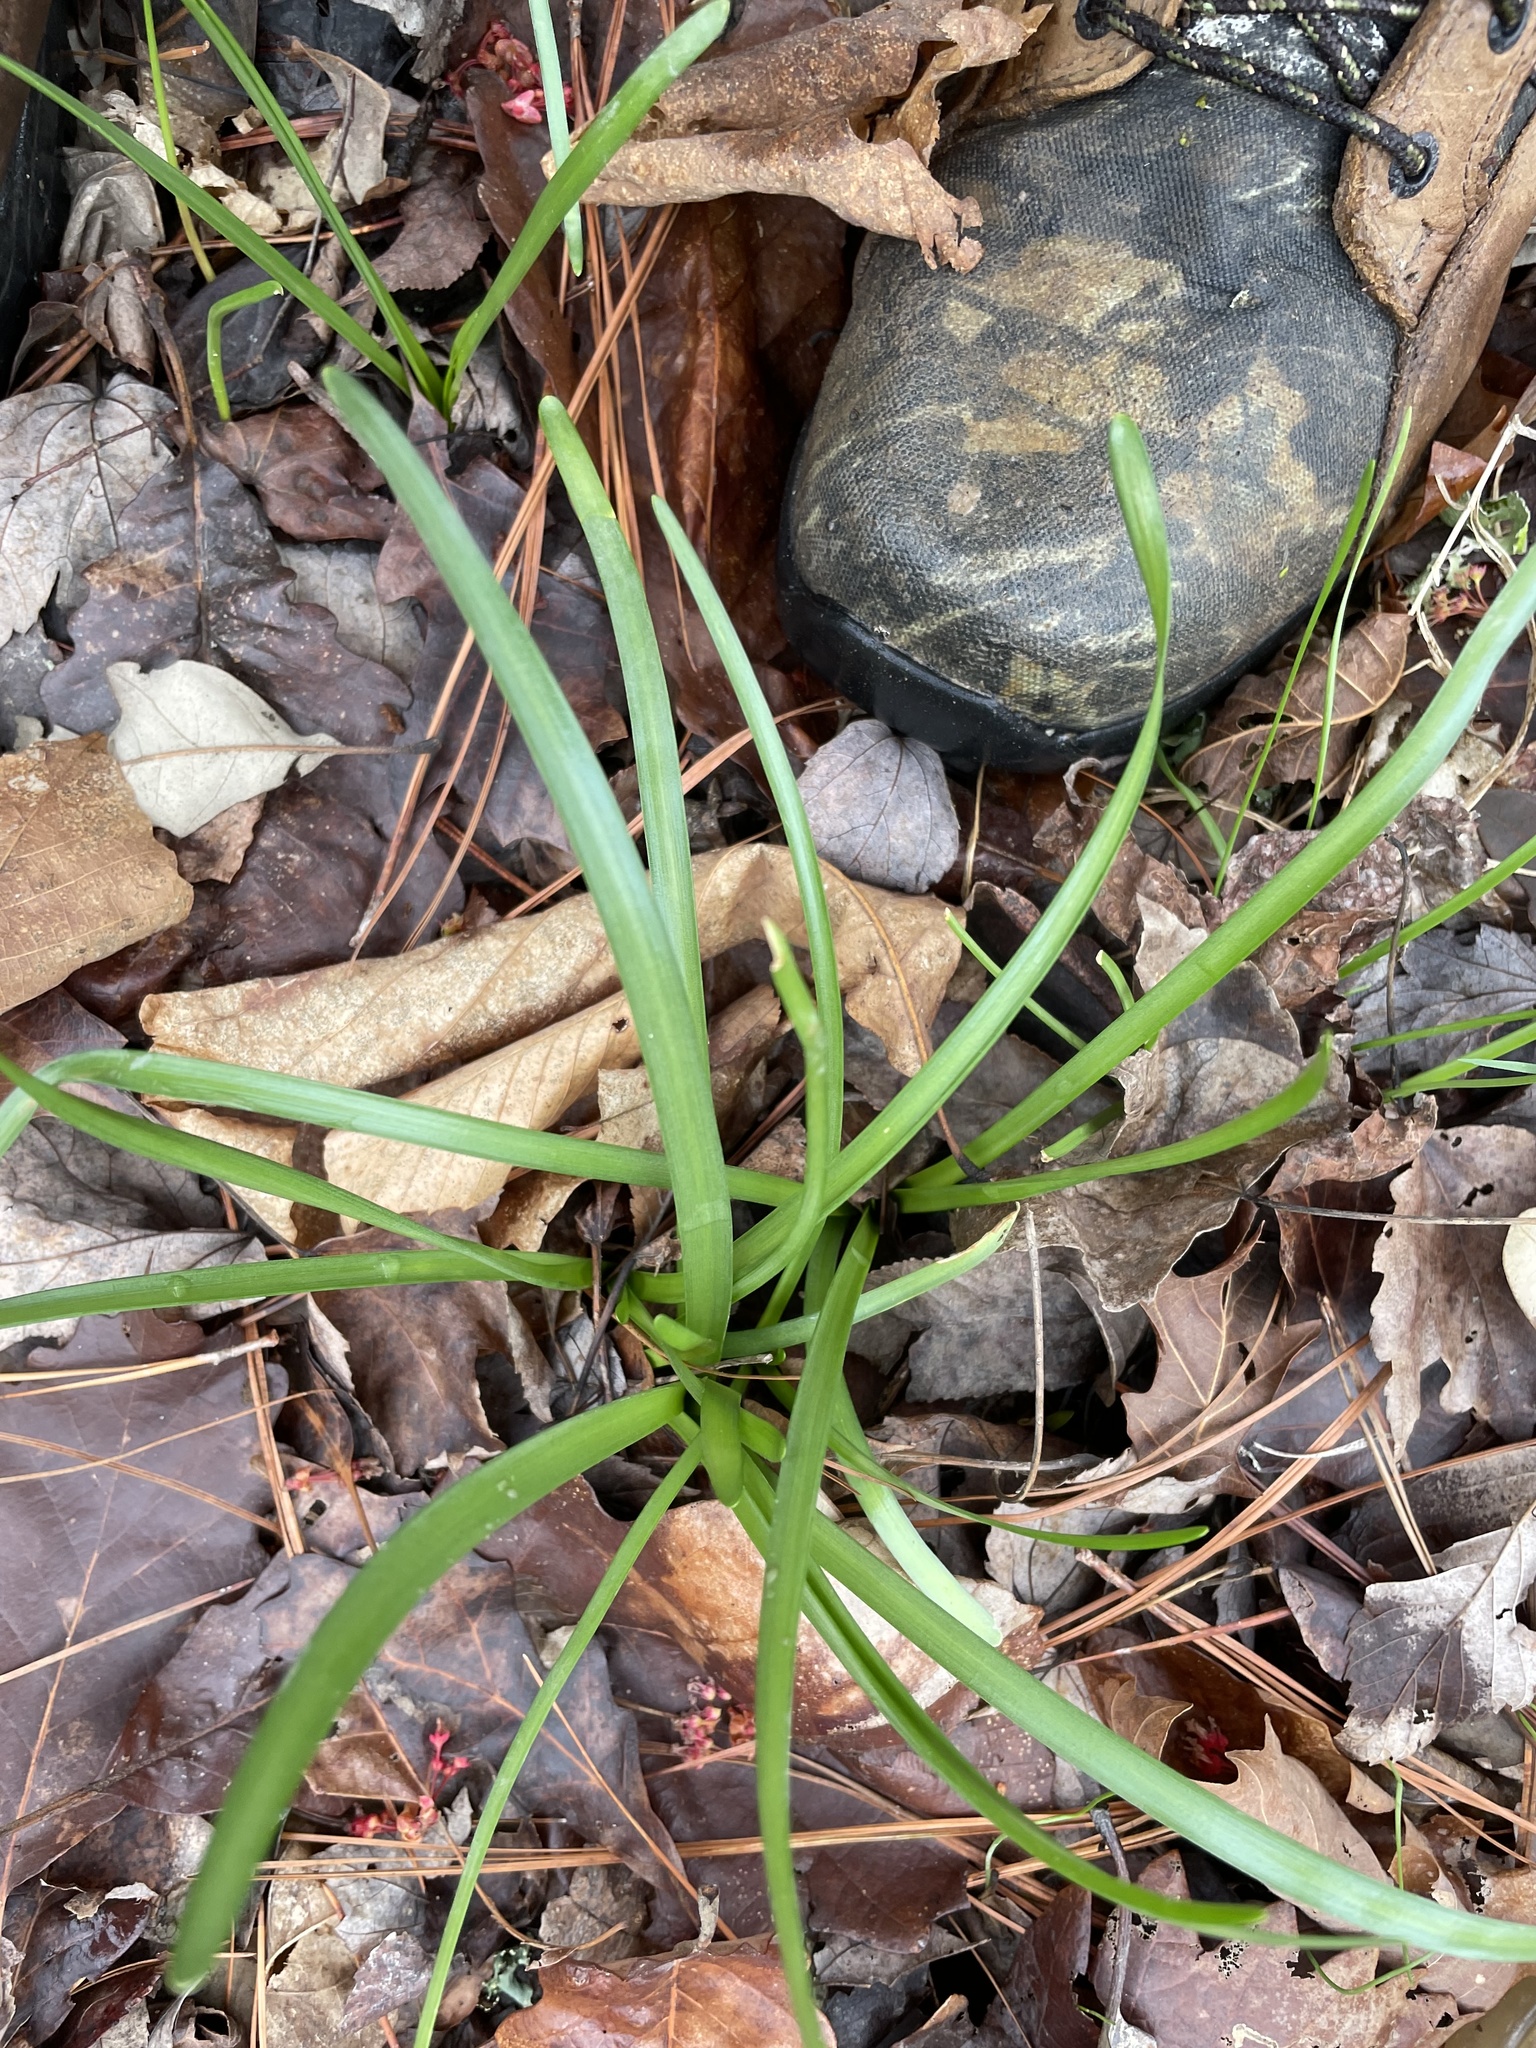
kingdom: Plantae
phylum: Tracheophyta
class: Liliopsida
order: Asparagales
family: Amaryllidaceae
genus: Zephyranthes
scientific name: Zephyranthes atamasco
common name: Atamasco lily
